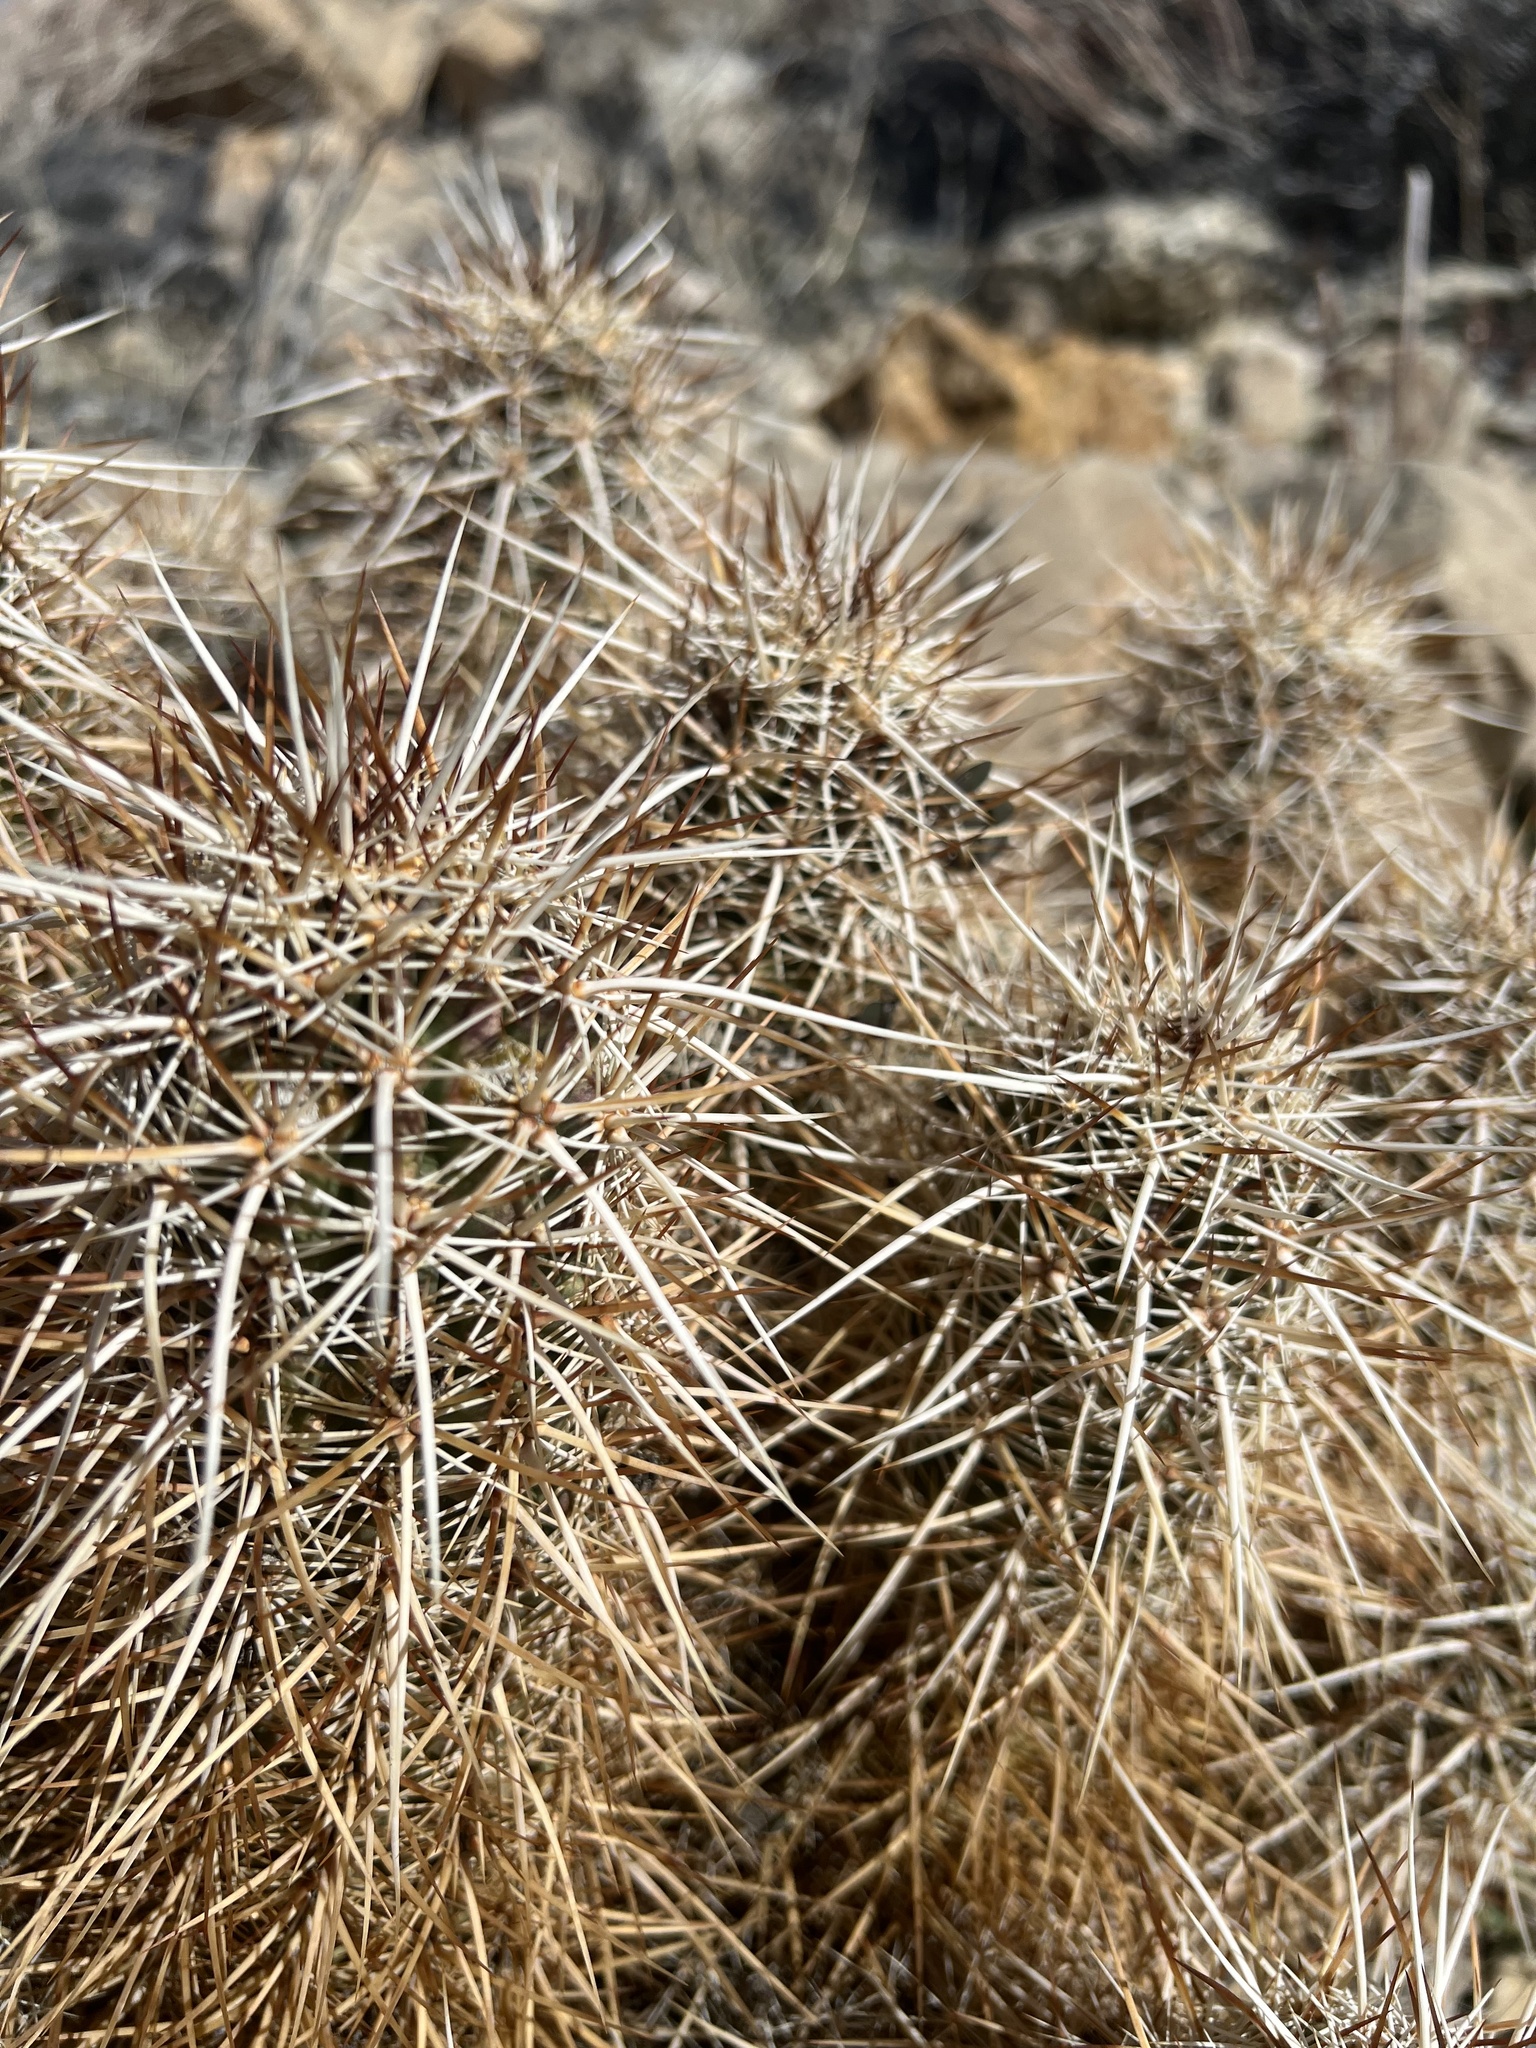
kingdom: Plantae
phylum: Tracheophyta
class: Magnoliopsida
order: Caryophyllales
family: Cactaceae
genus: Echinocereus
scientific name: Echinocereus engelmannii
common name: Engelmann's hedgehog cactus
